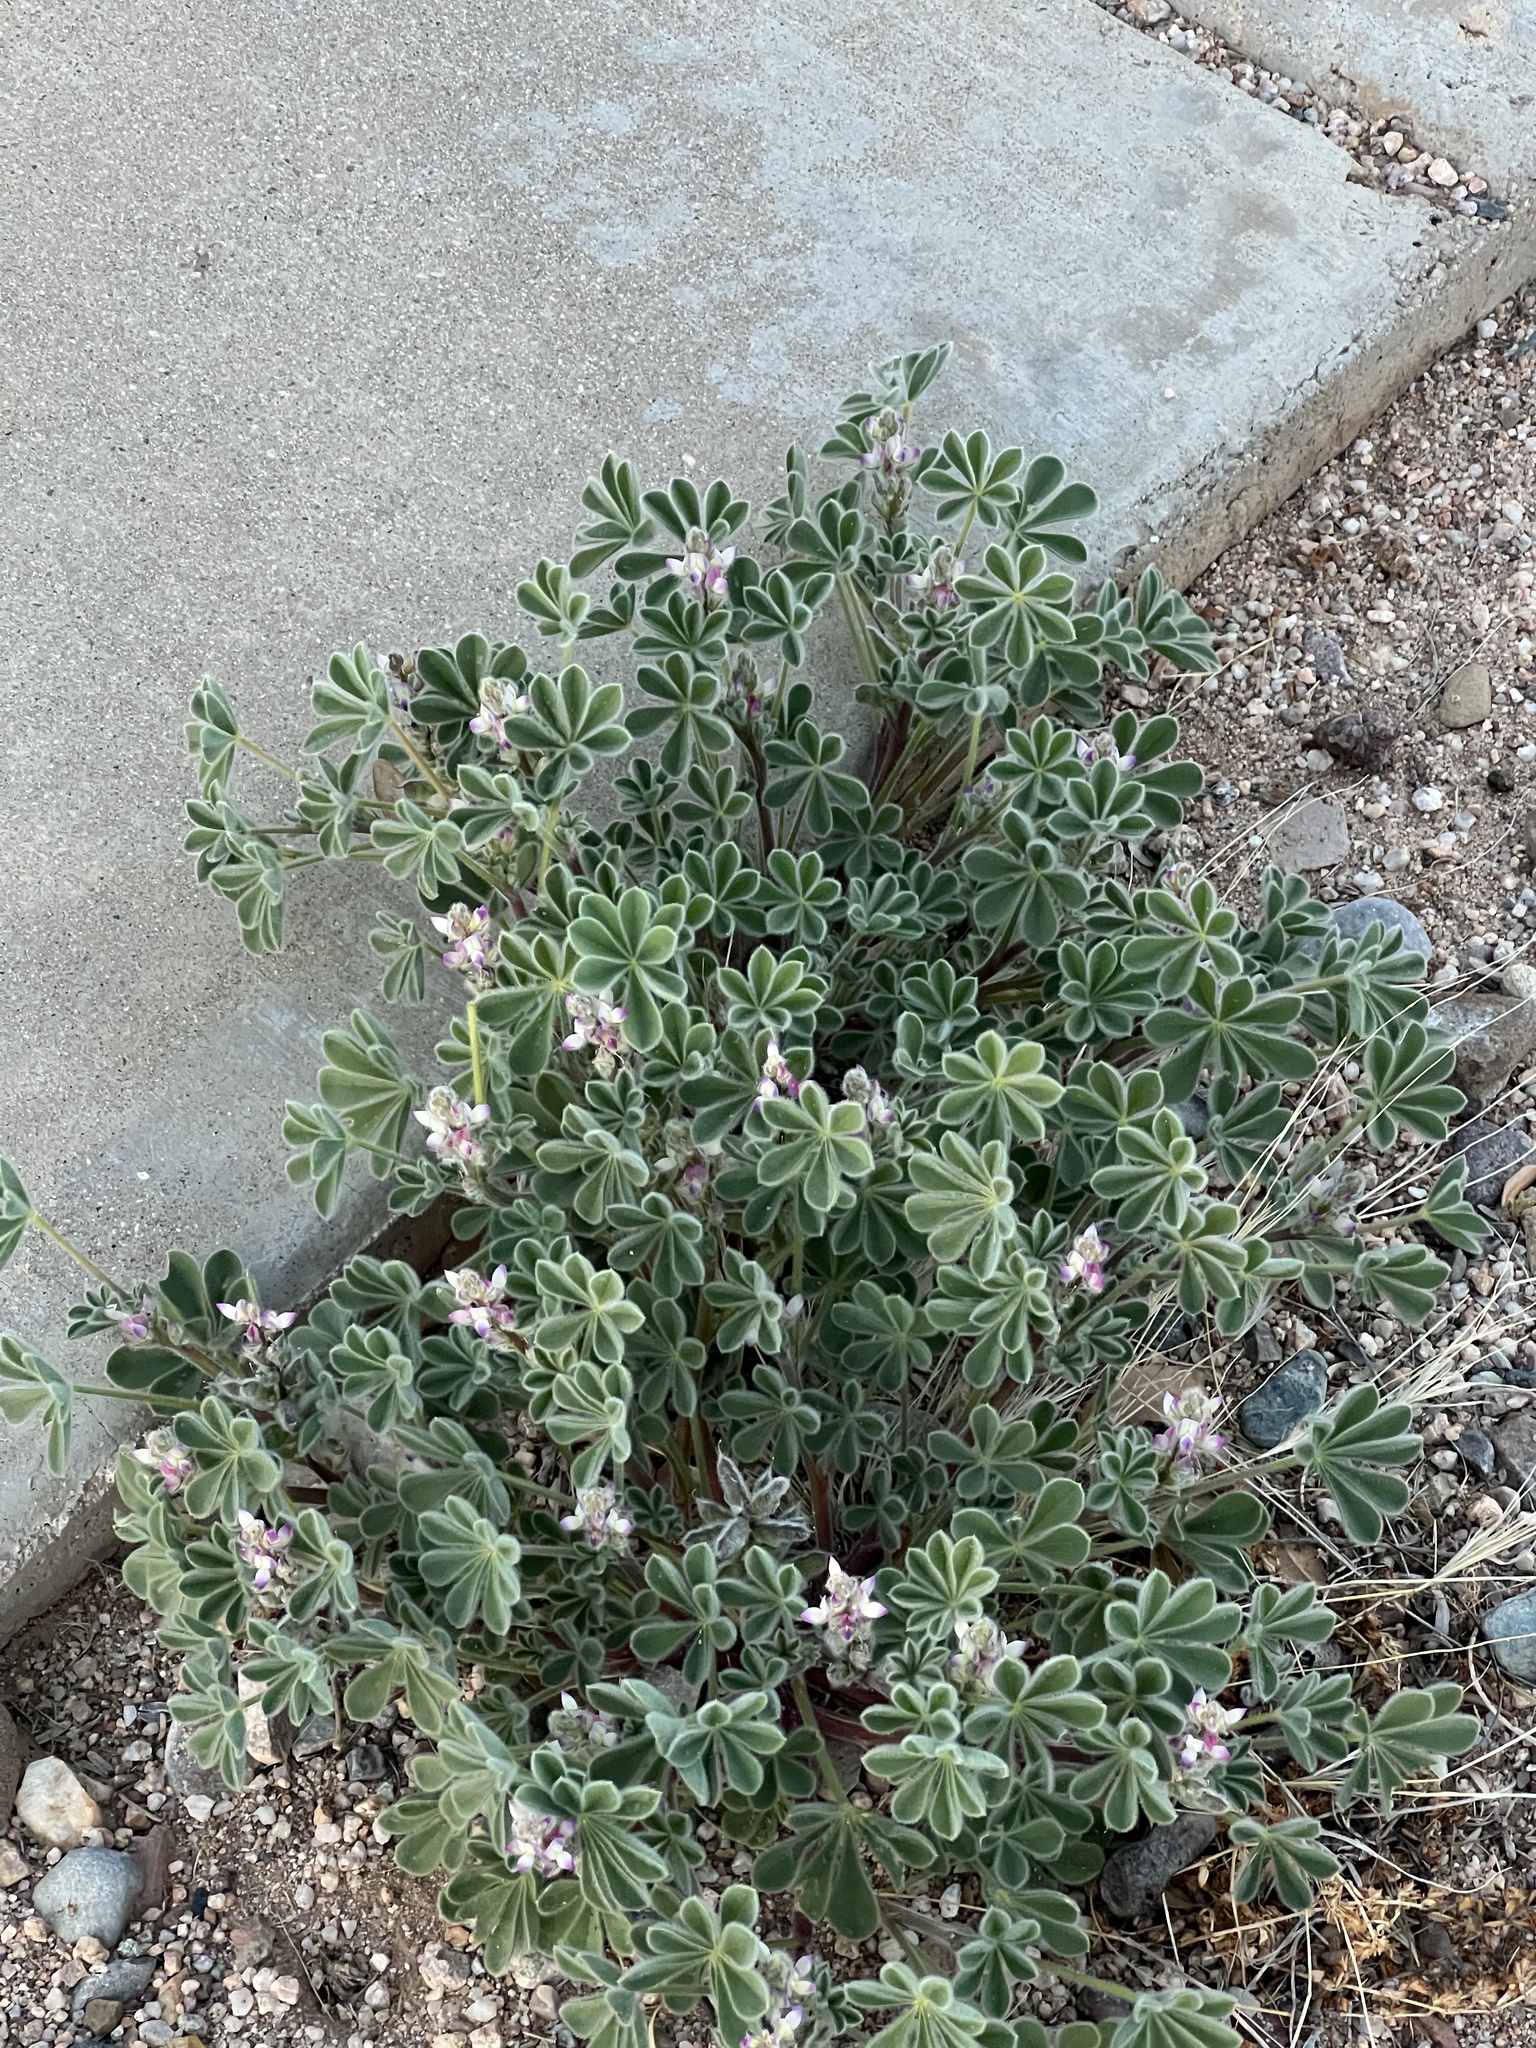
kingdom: Plantae
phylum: Tracheophyta
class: Magnoliopsida
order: Fabales
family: Fabaceae
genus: Lupinus
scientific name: Lupinus concinnus
